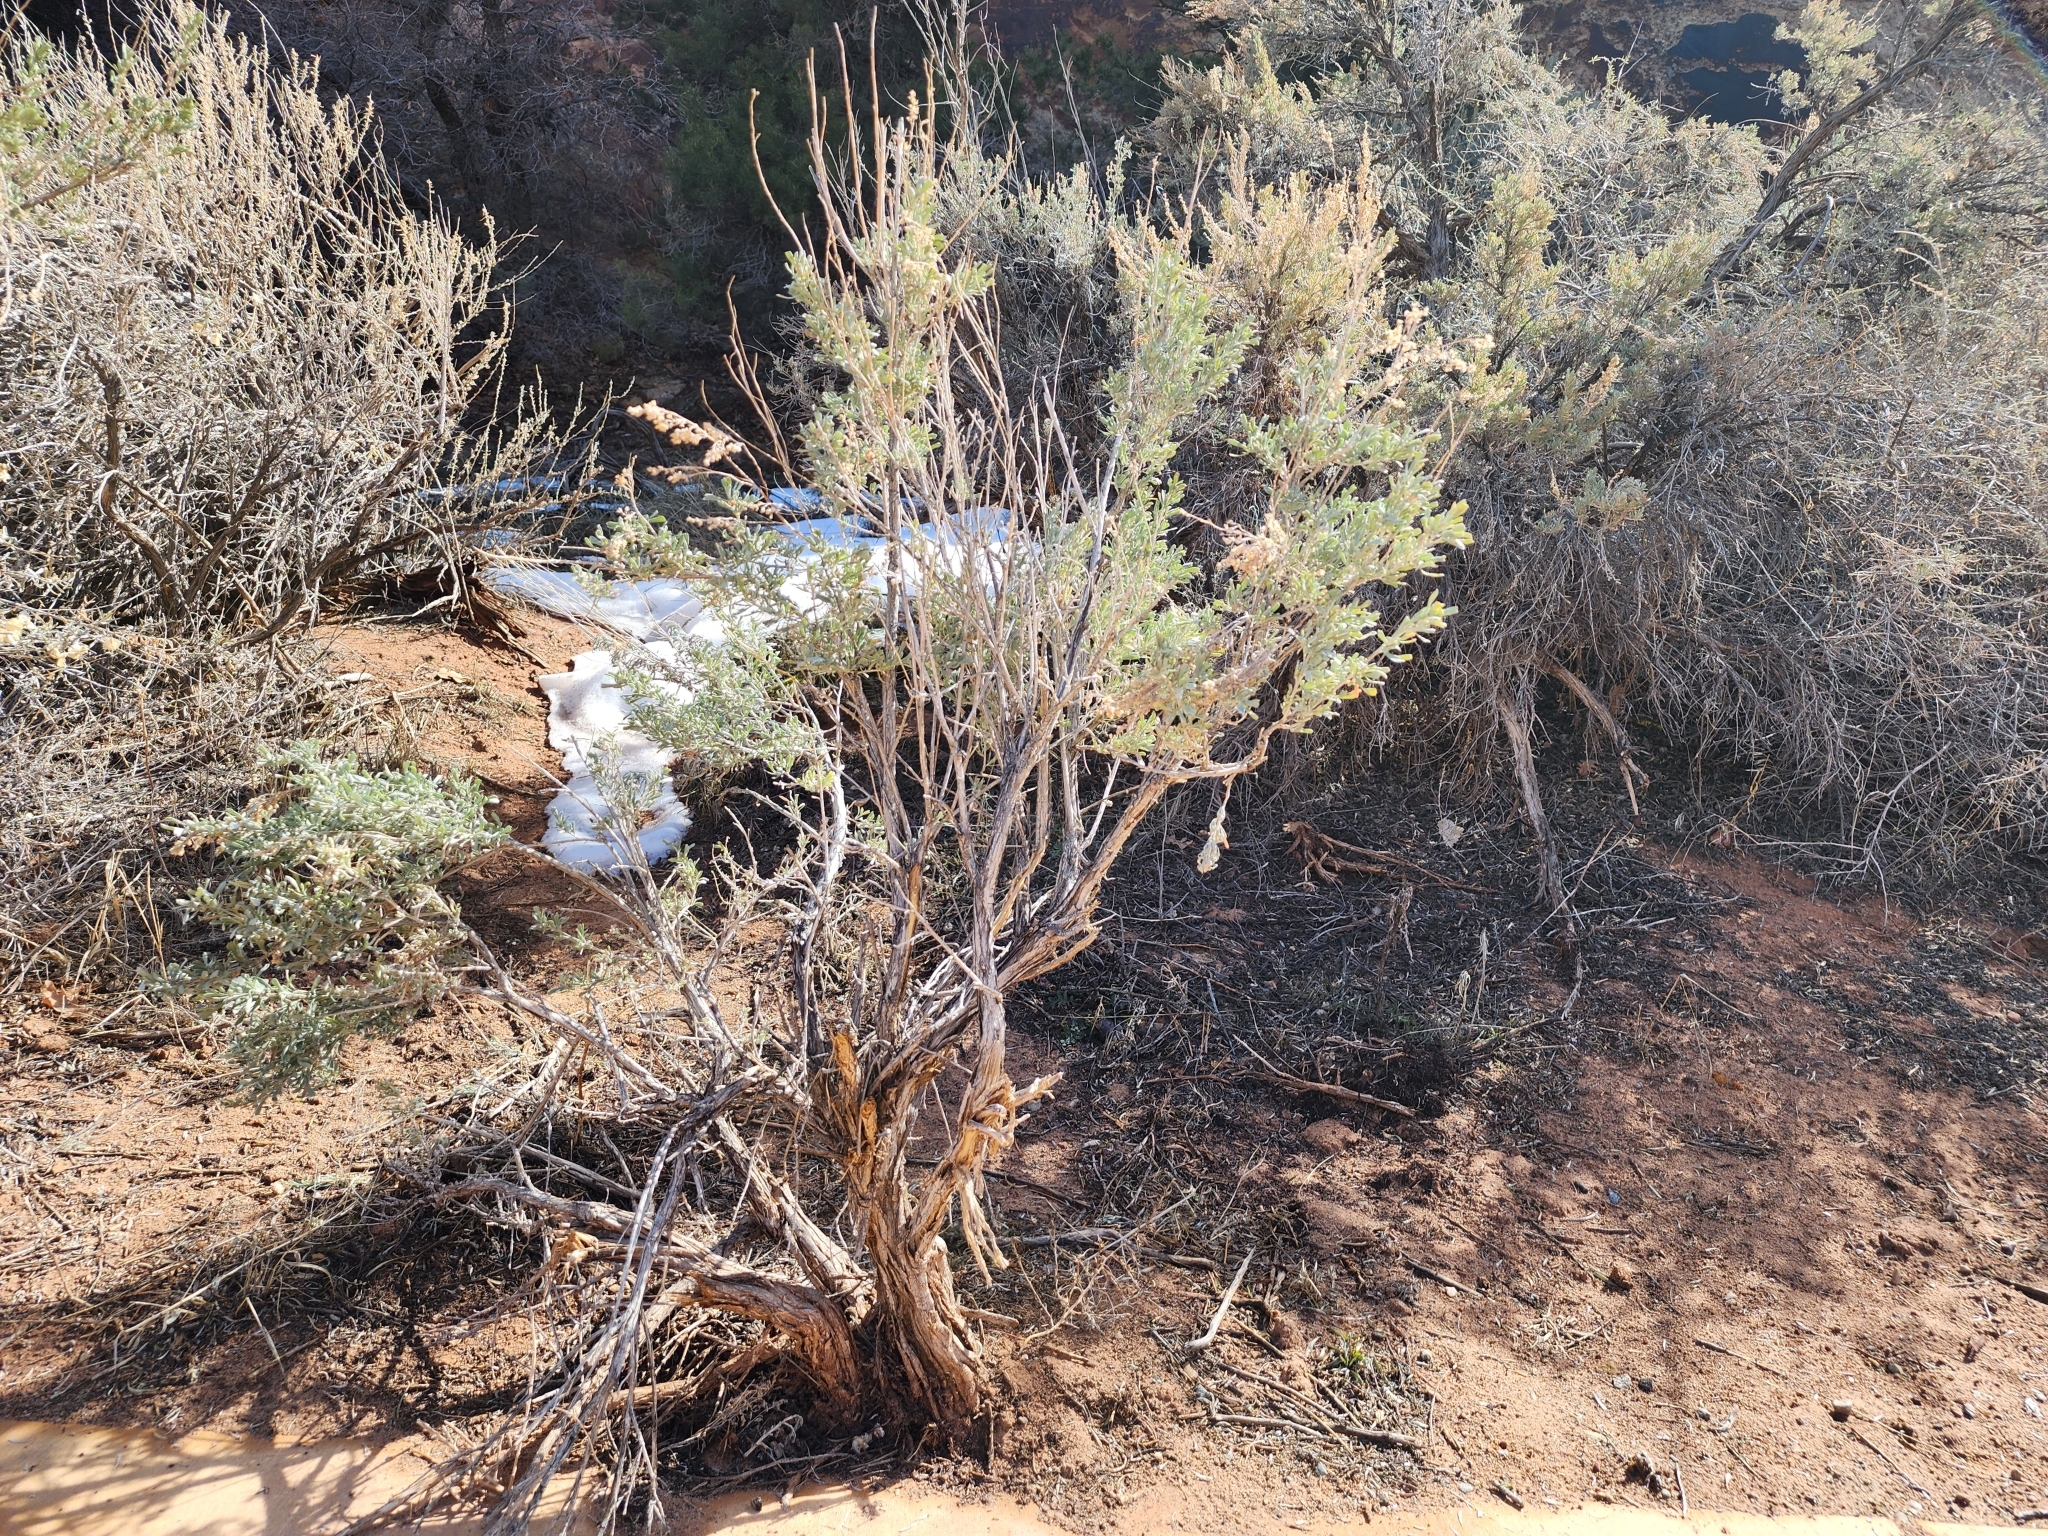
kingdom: Plantae
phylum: Tracheophyta
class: Magnoliopsida
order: Asterales
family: Asteraceae
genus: Artemisia
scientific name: Artemisia tridentata
